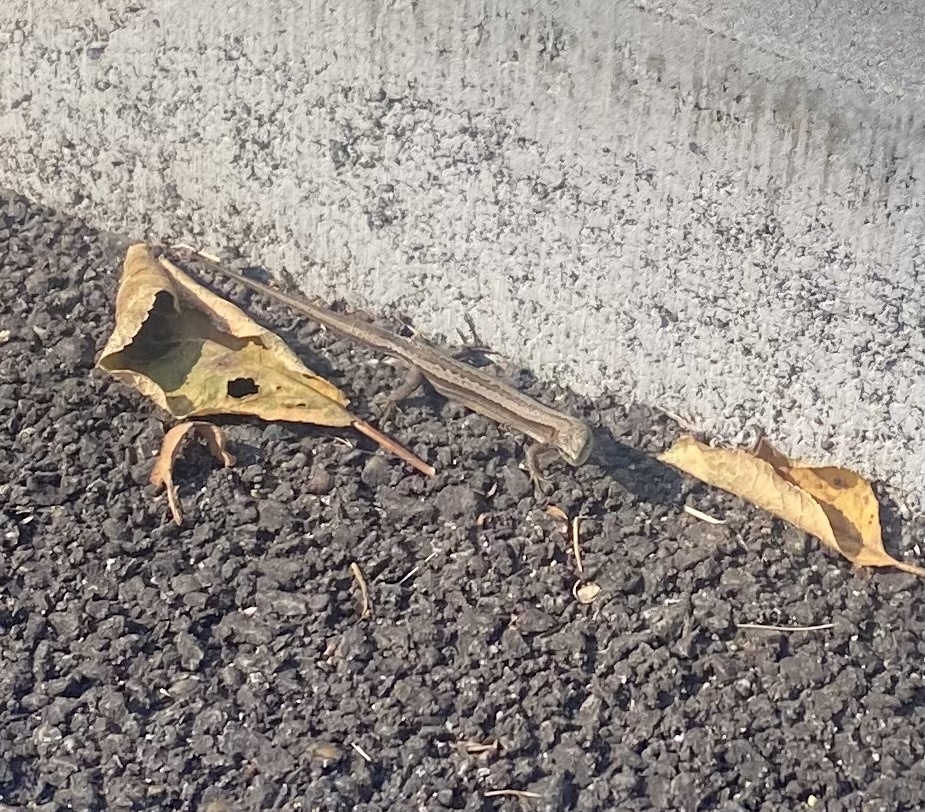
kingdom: Animalia
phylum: Chordata
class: Squamata
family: Lacertidae
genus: Darevskia
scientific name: Darevskia praticola
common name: Meadow lizard
